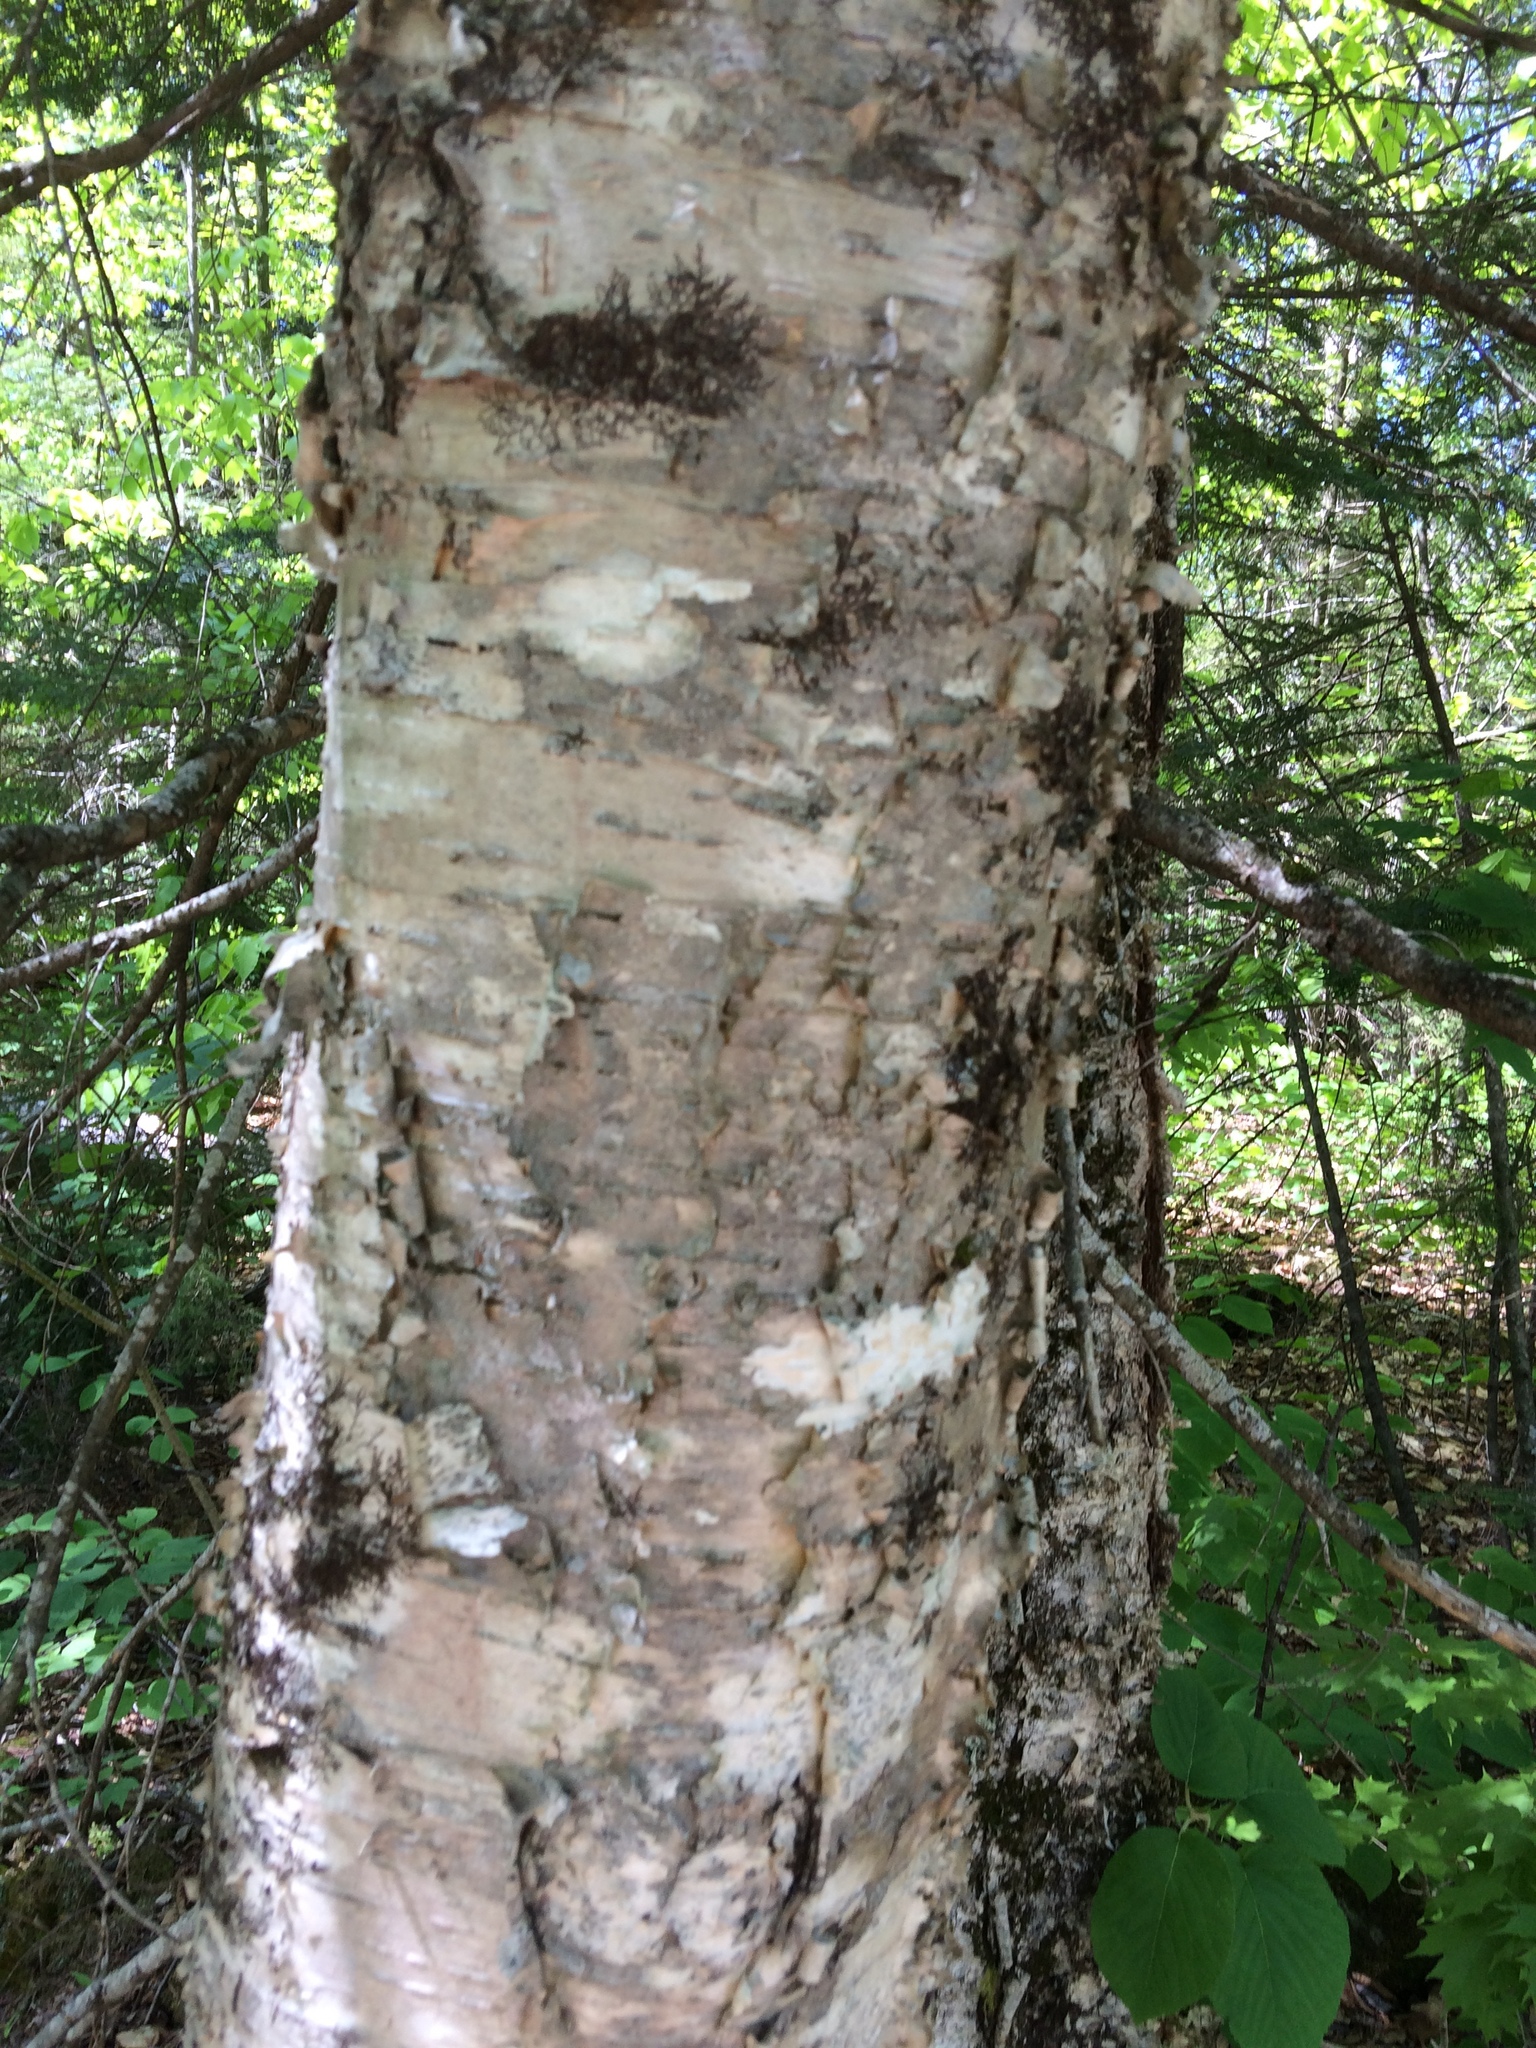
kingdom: Plantae
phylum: Tracheophyta
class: Magnoliopsida
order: Fagales
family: Betulaceae
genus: Betula
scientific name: Betula alleghaniensis
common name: Yellow birch
